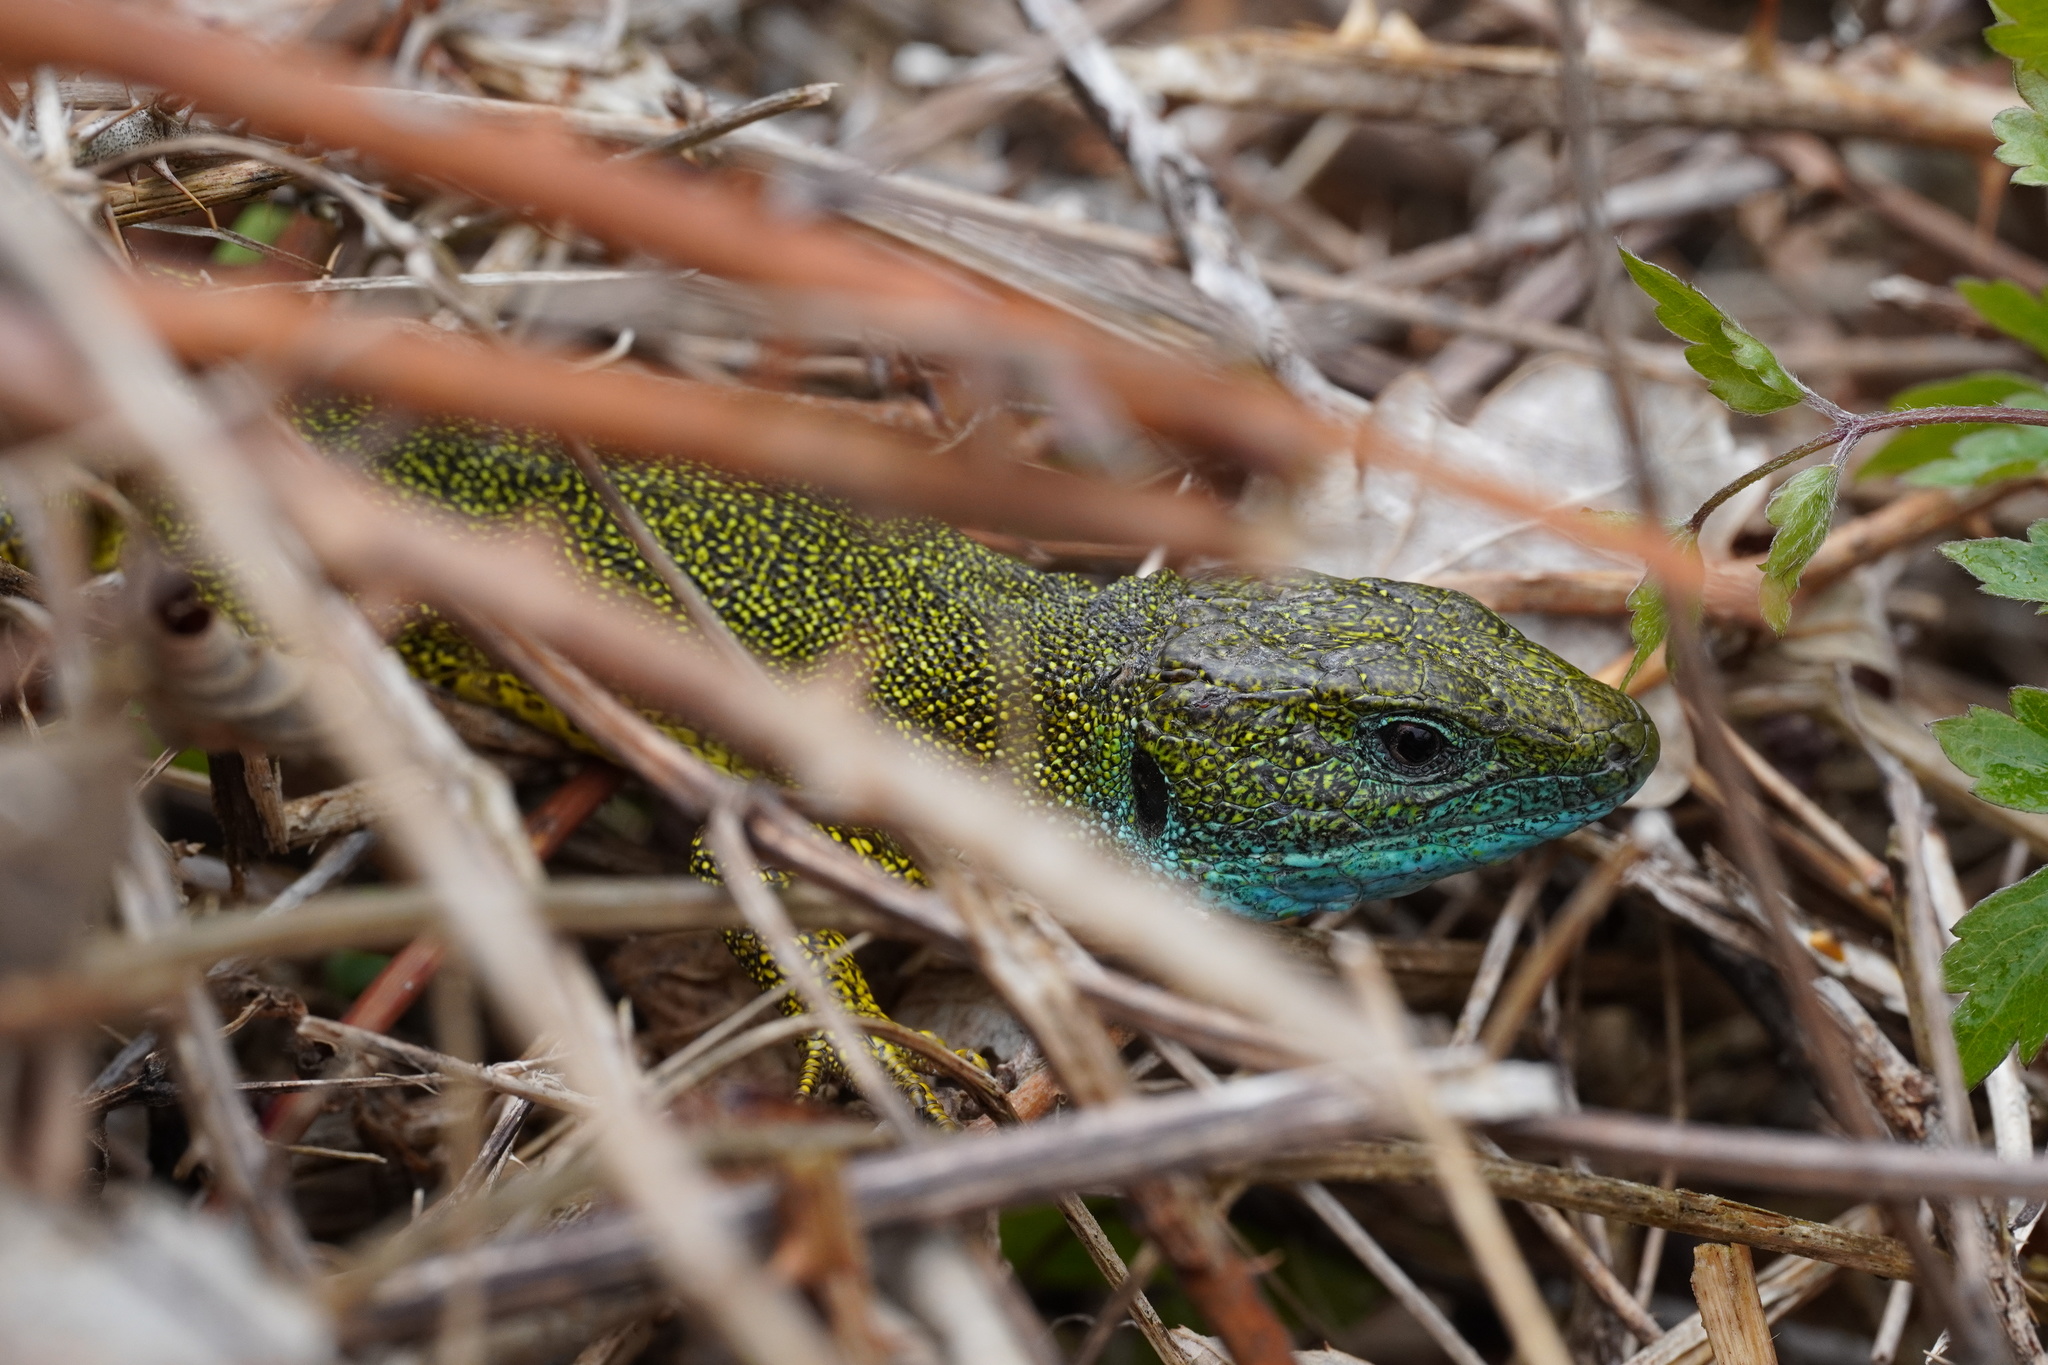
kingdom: Animalia
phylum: Chordata
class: Squamata
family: Lacertidae
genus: Lacerta
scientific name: Lacerta viridis
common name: European green lizard
